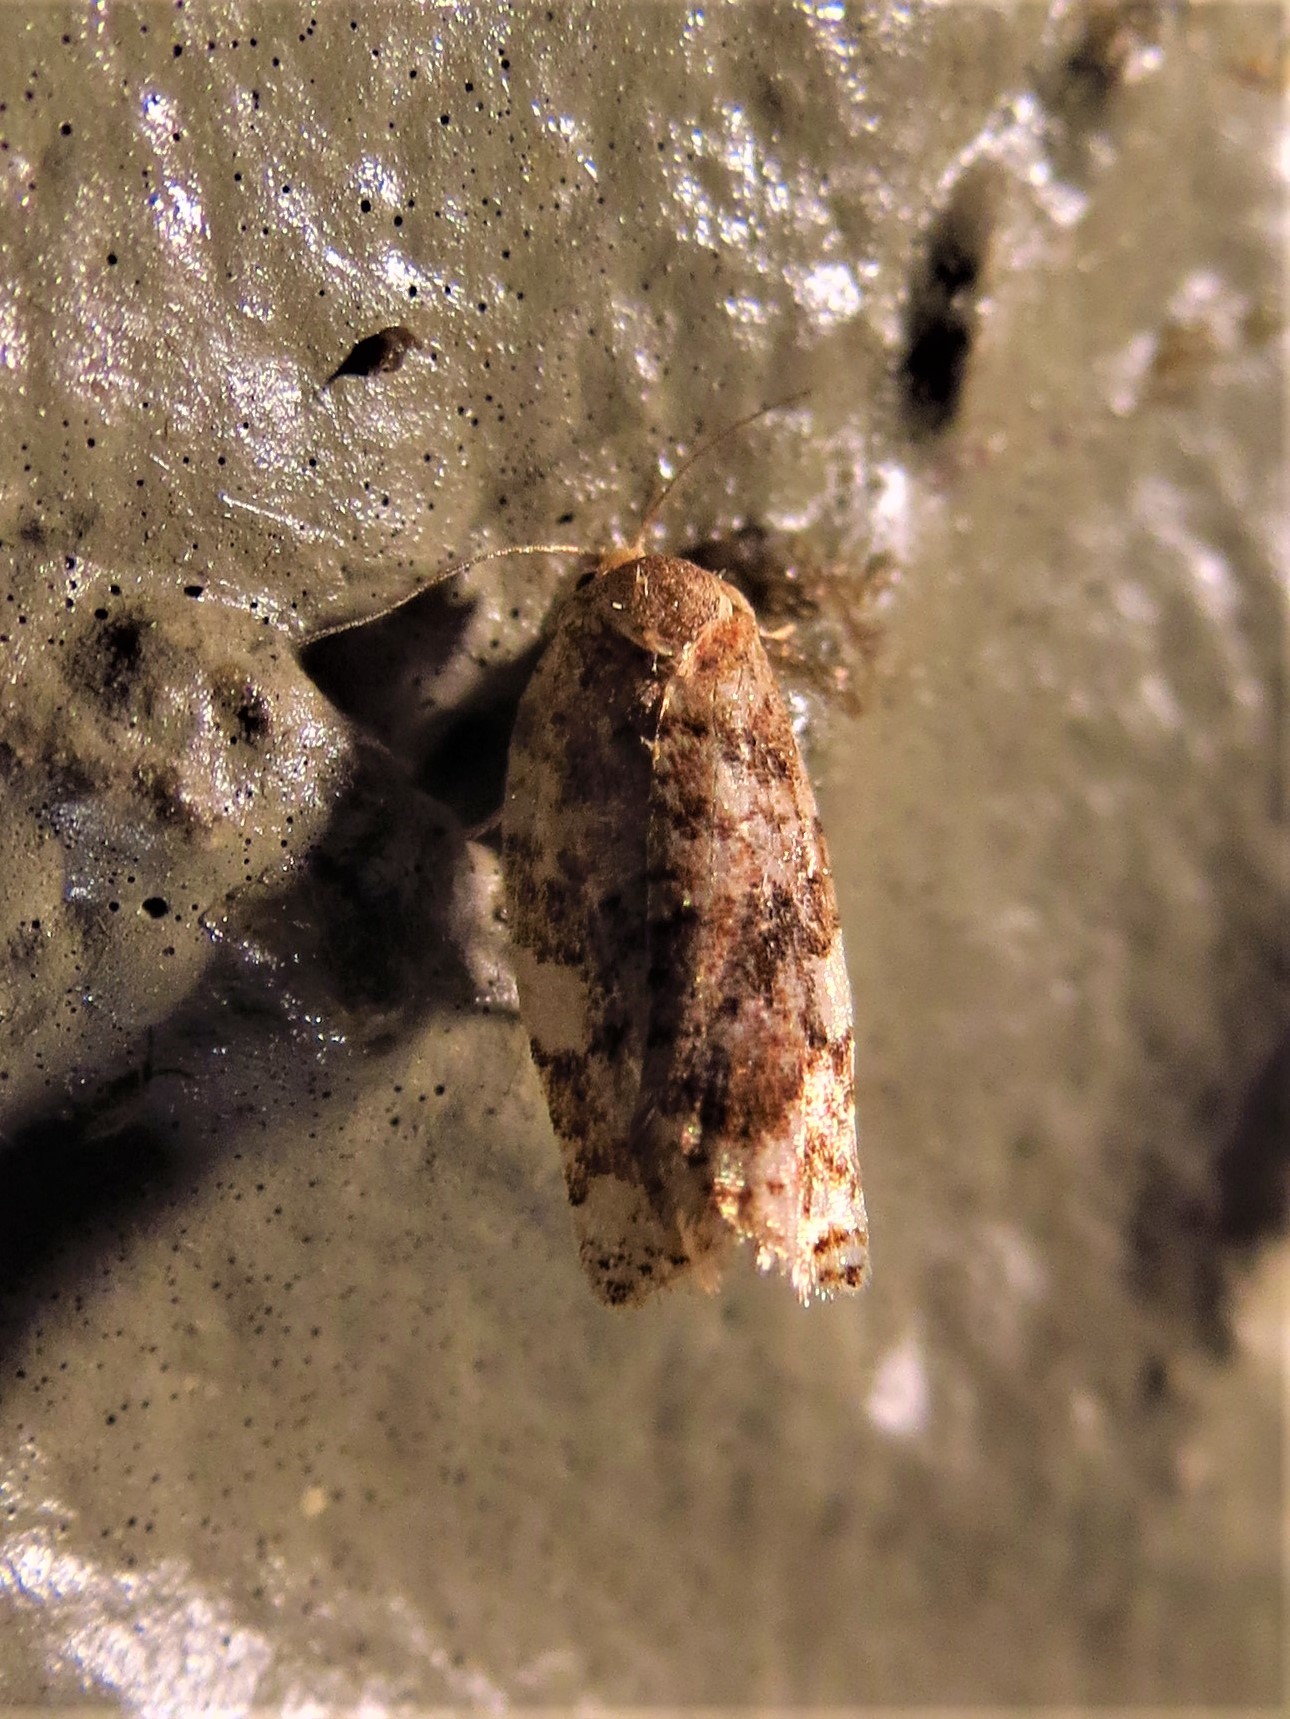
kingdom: Animalia
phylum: Arthropoda
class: Insecta
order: Lepidoptera
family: Tortricidae
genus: Archips
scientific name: Archips argyrospila
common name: Fruit-tree leafroller moth
